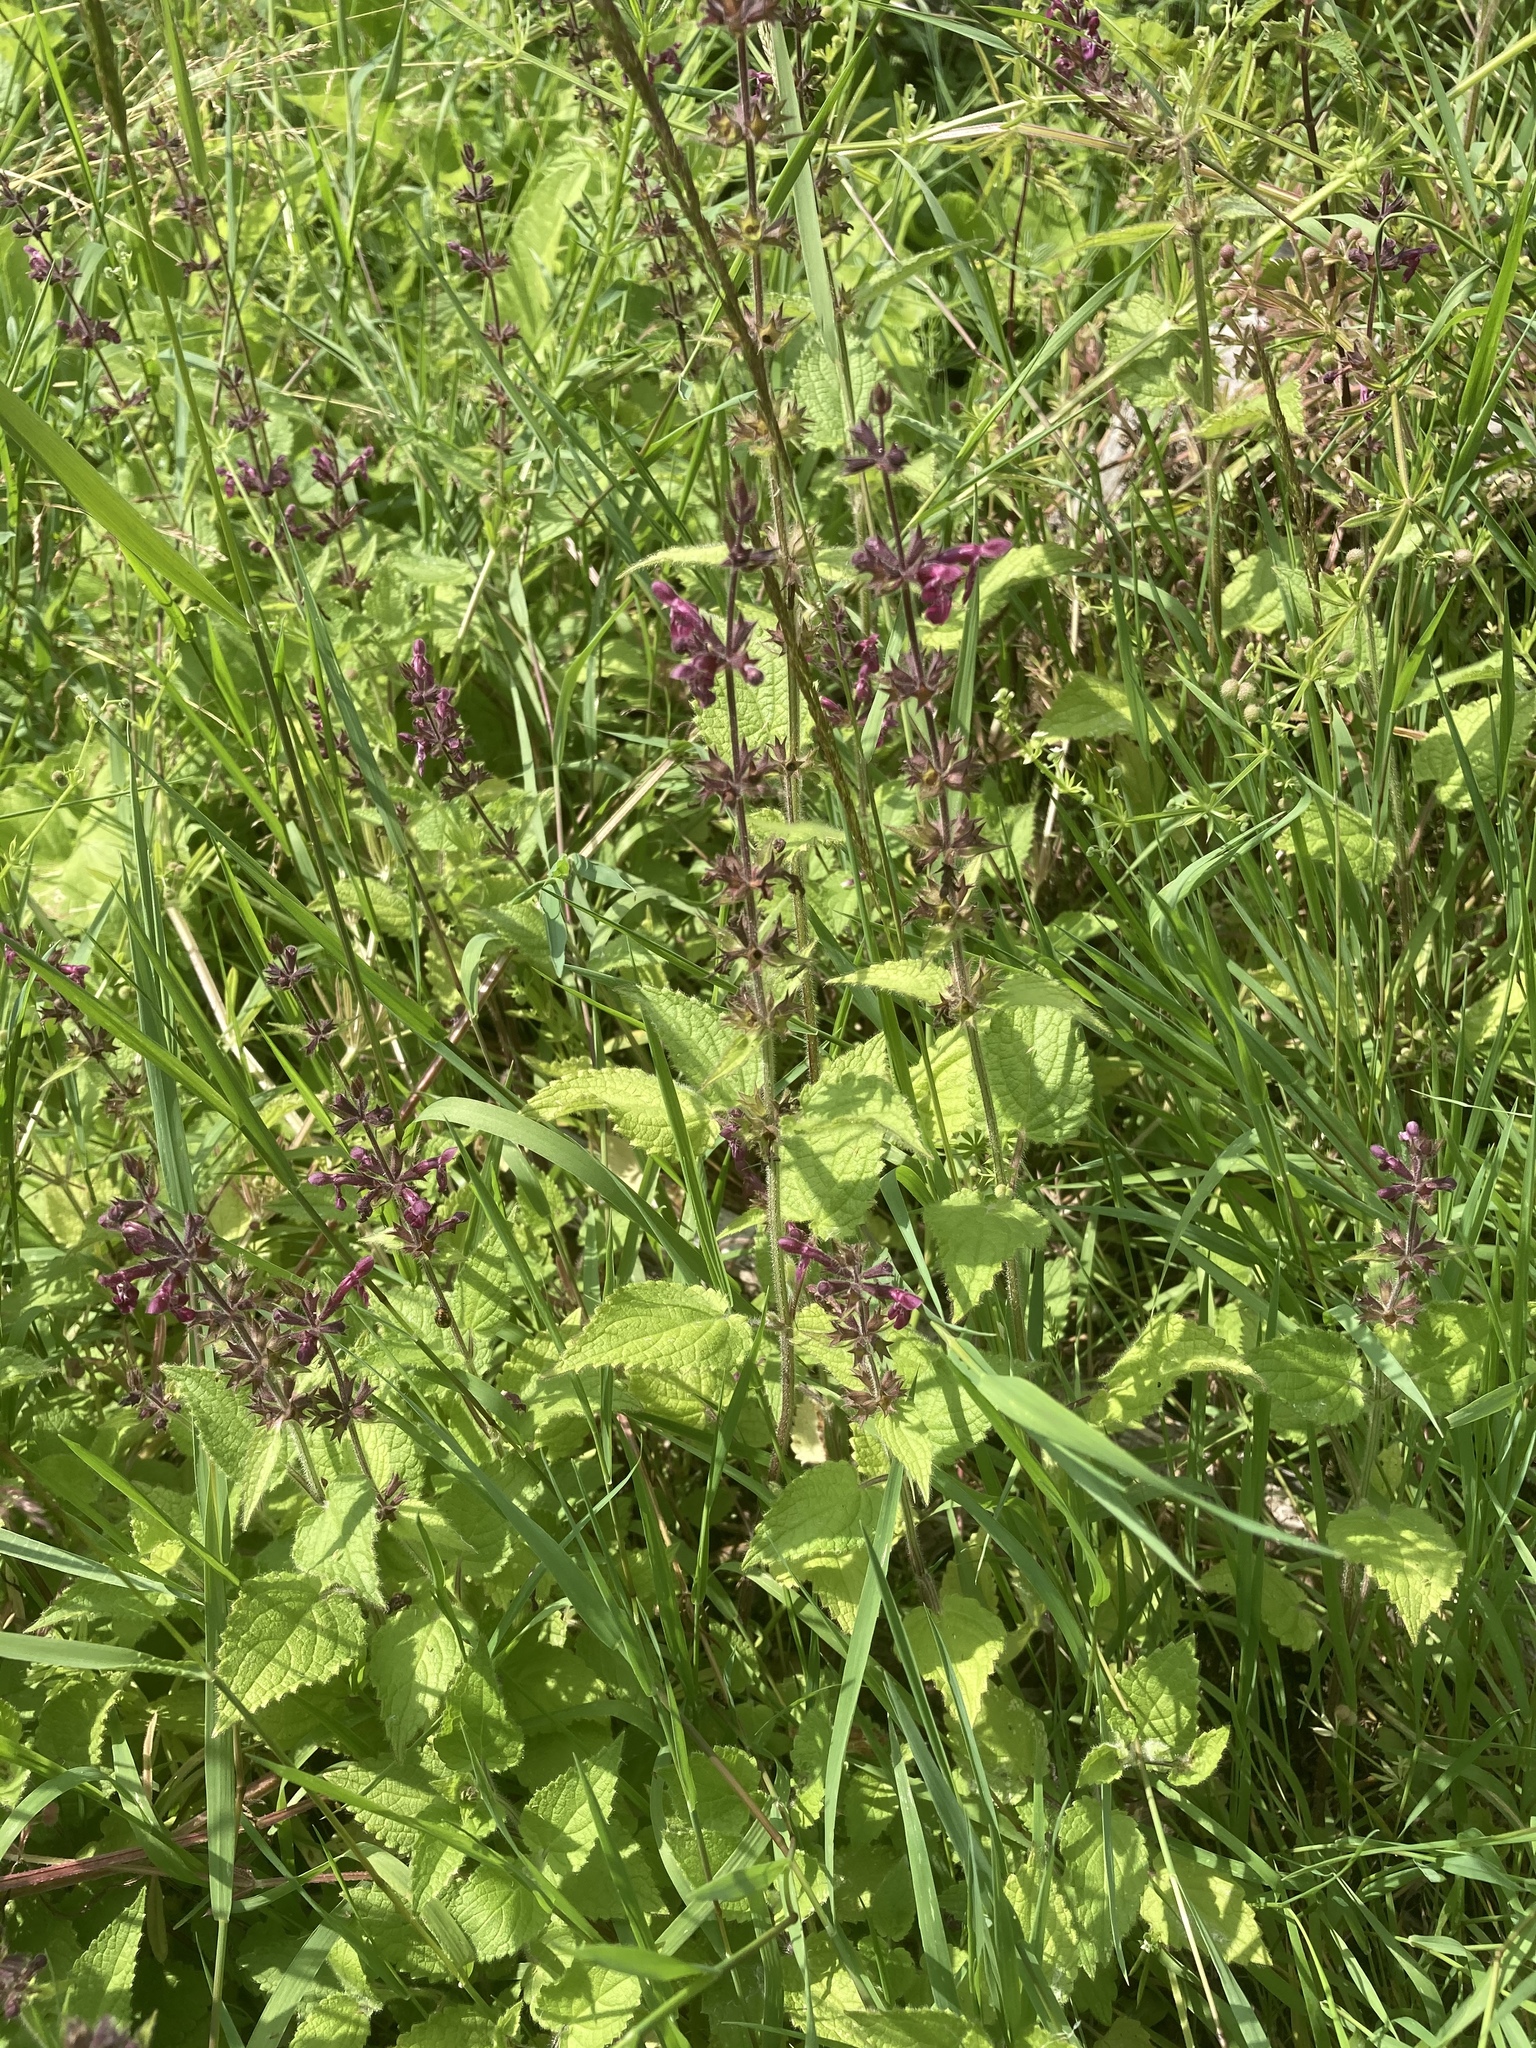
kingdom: Plantae
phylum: Tracheophyta
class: Magnoliopsida
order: Lamiales
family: Lamiaceae
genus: Stachys
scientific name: Stachys sylvatica
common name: Hedge woundwort
